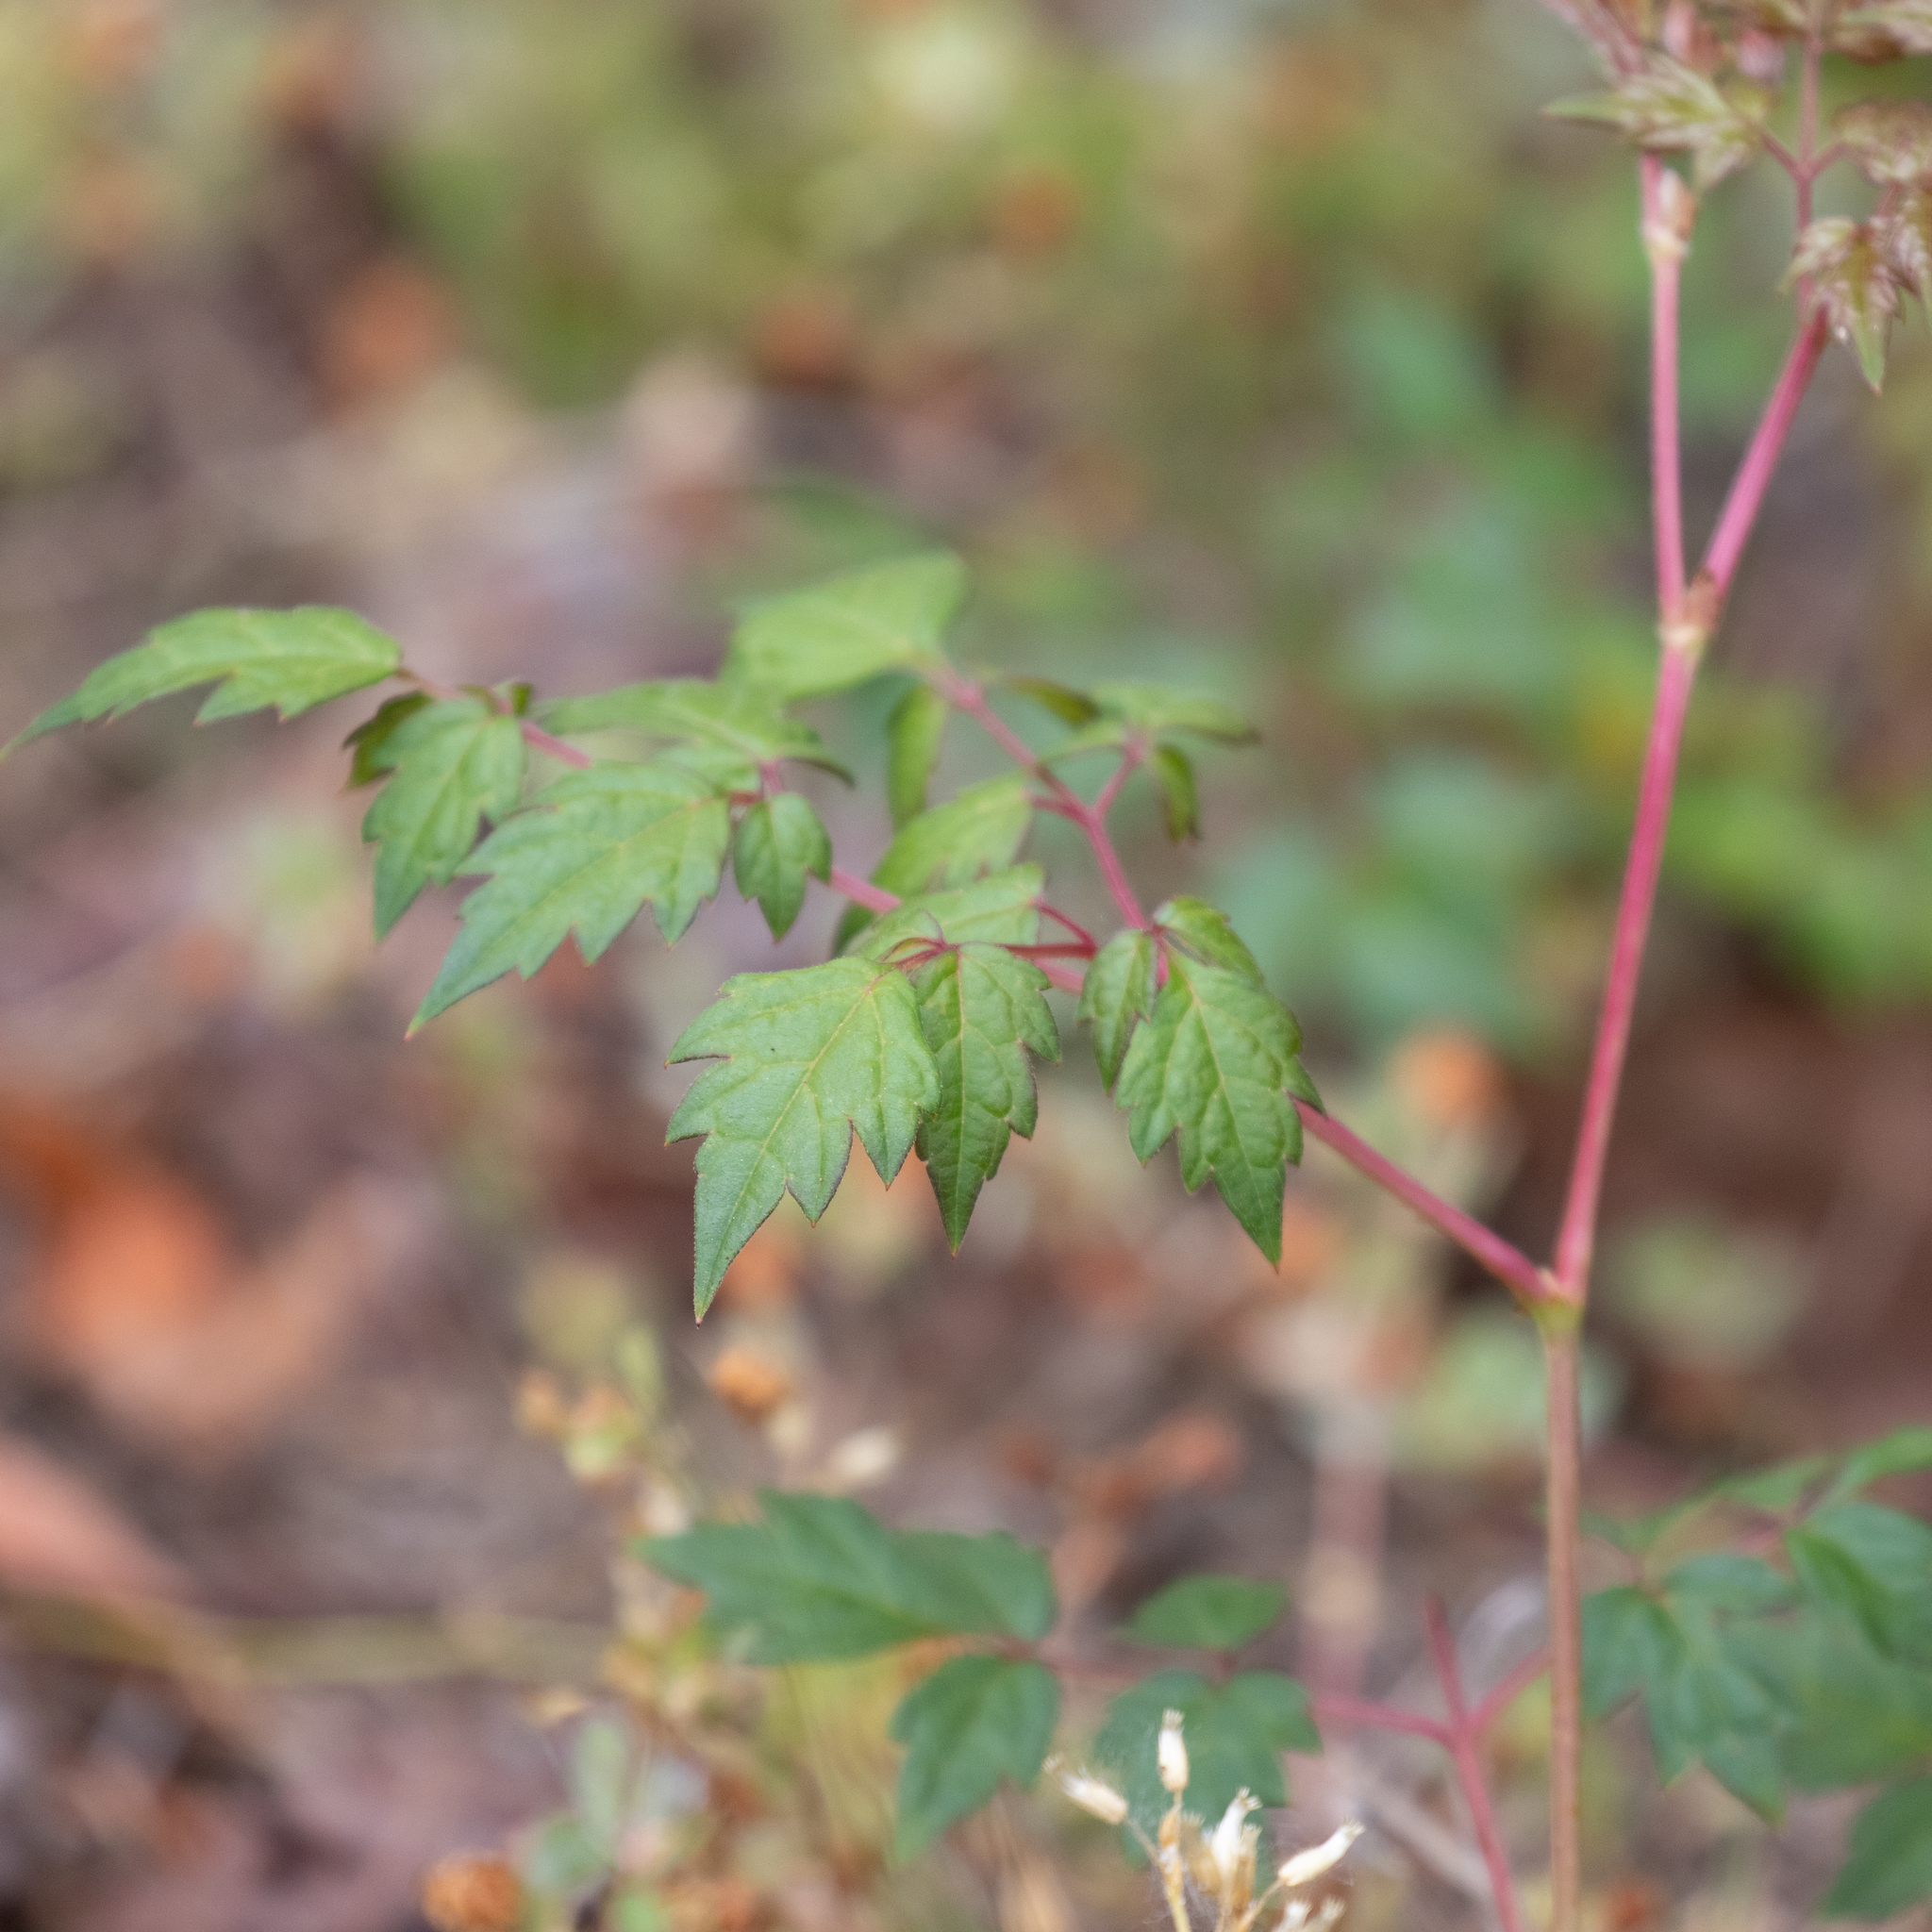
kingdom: Plantae
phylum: Tracheophyta
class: Magnoliopsida
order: Vitales
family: Vitaceae
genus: Nekemias
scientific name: Nekemias arborea
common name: Peppervine
